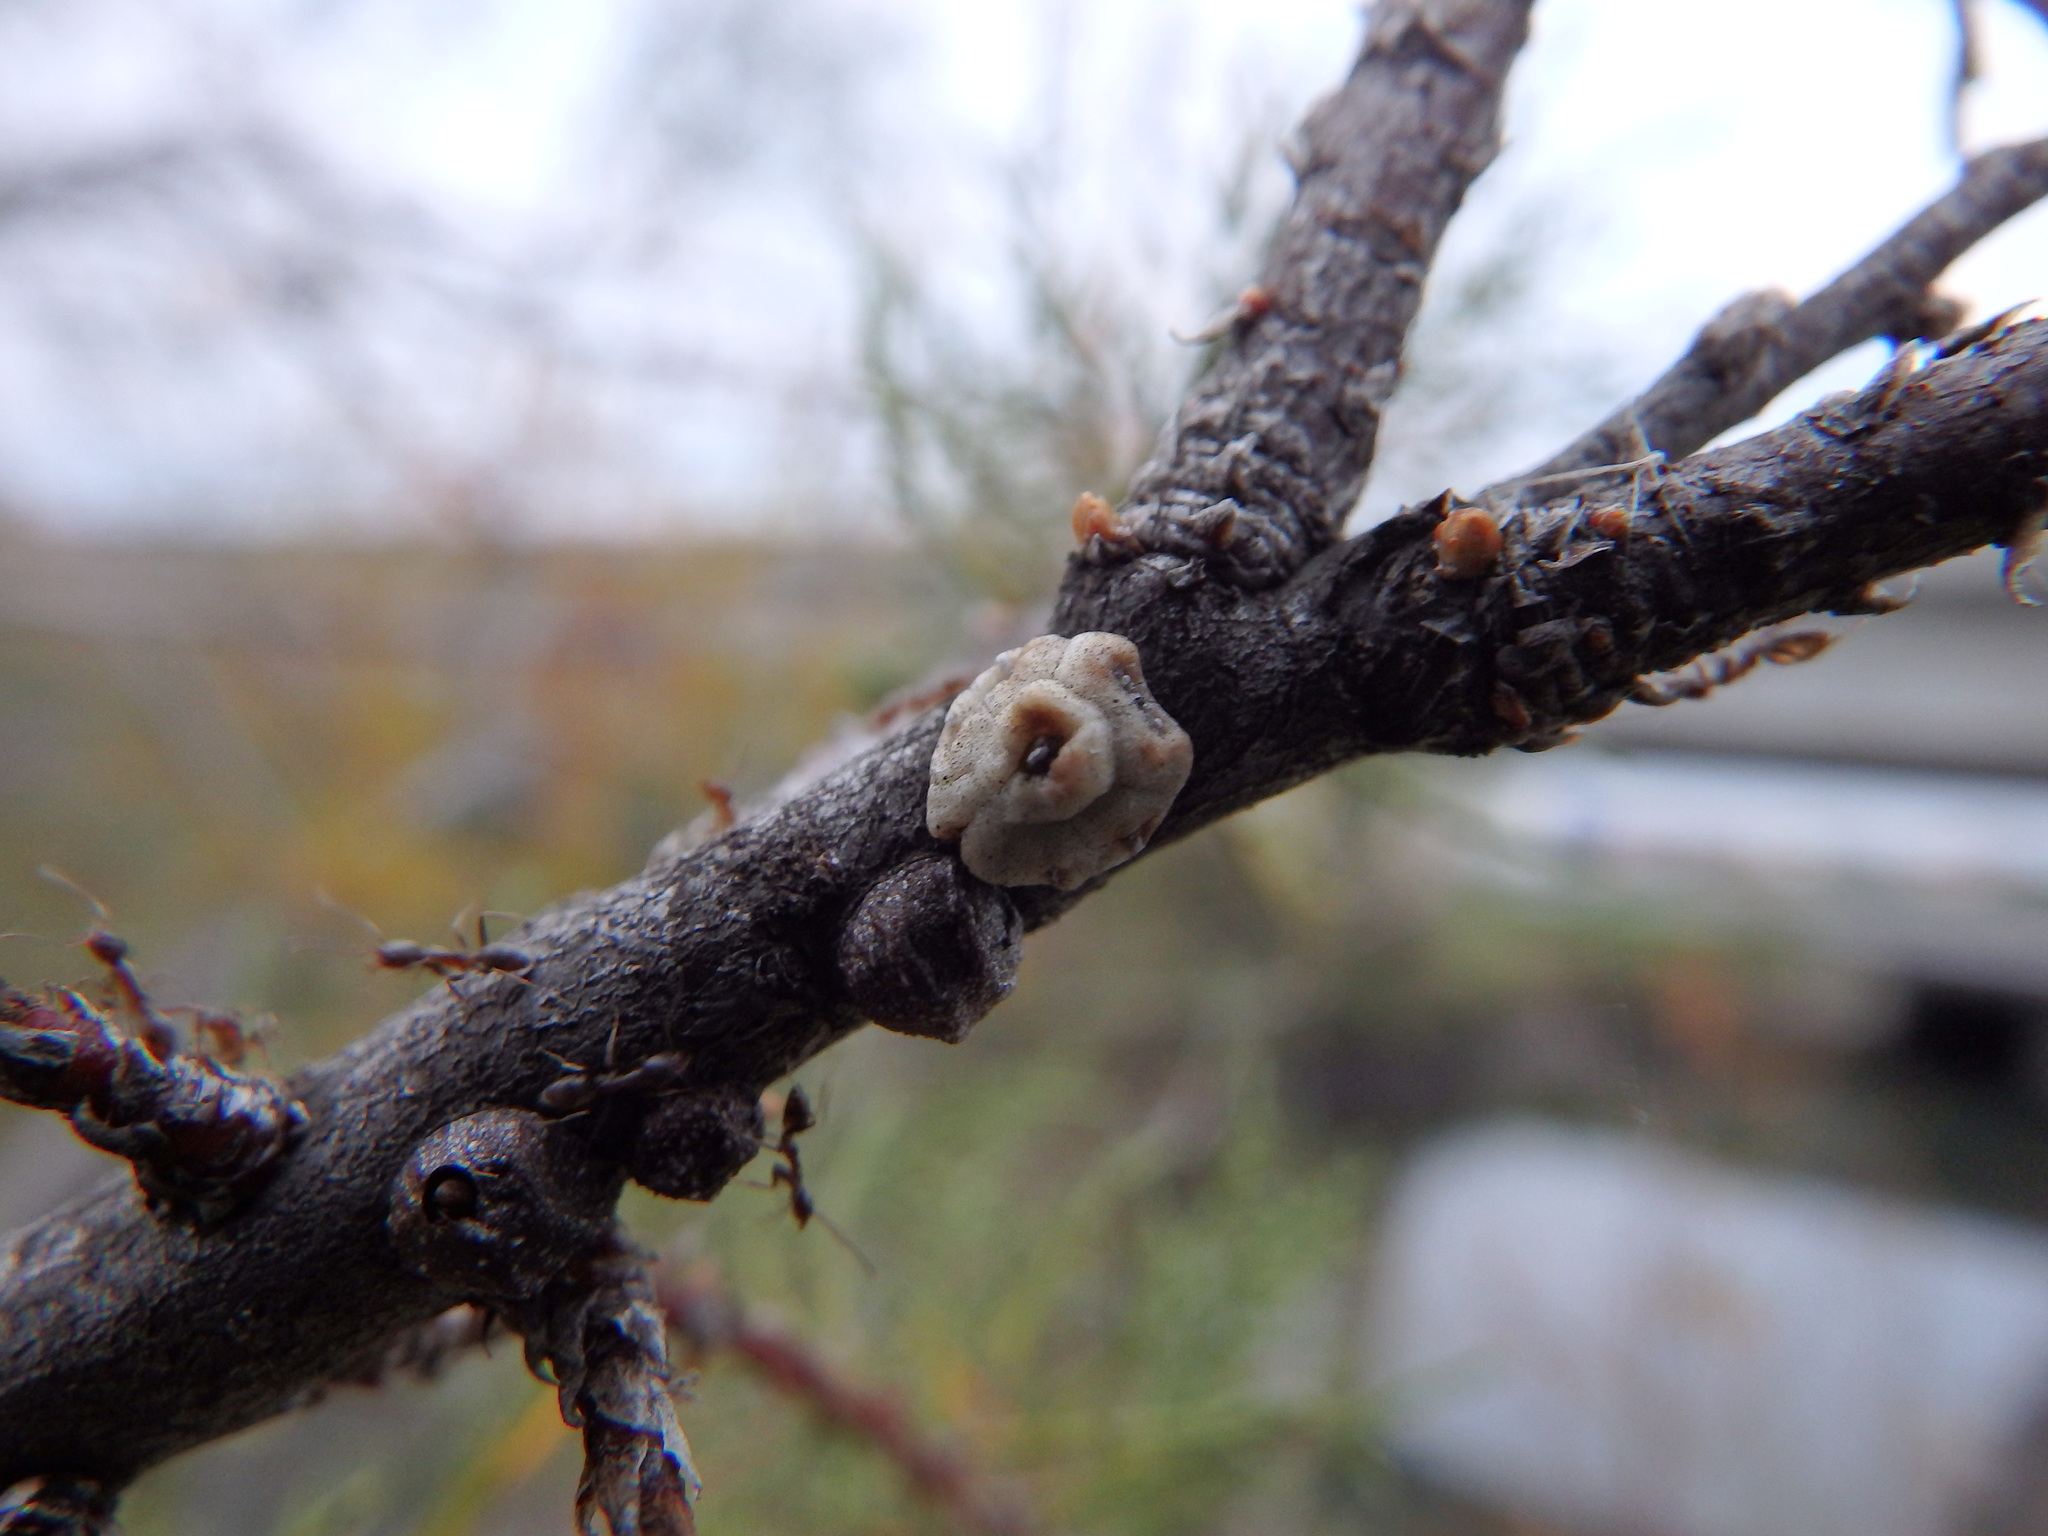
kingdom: Animalia
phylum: Arthropoda
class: Insecta
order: Hymenoptera
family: Formicidae
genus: Linepithema
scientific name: Linepithema humile
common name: Argentine ant
